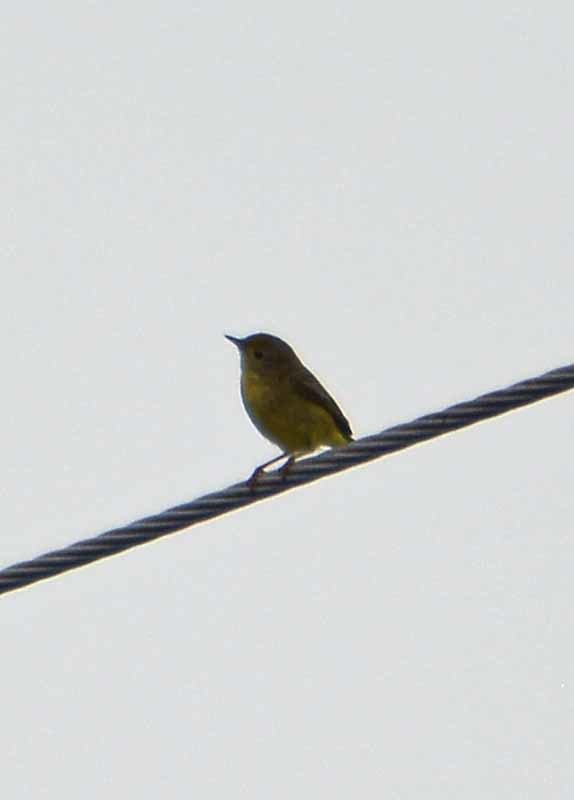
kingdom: Animalia
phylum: Chordata
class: Aves
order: Passeriformes
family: Parulidae
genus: Cardellina
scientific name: Cardellina pusilla
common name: Wilson's warbler
